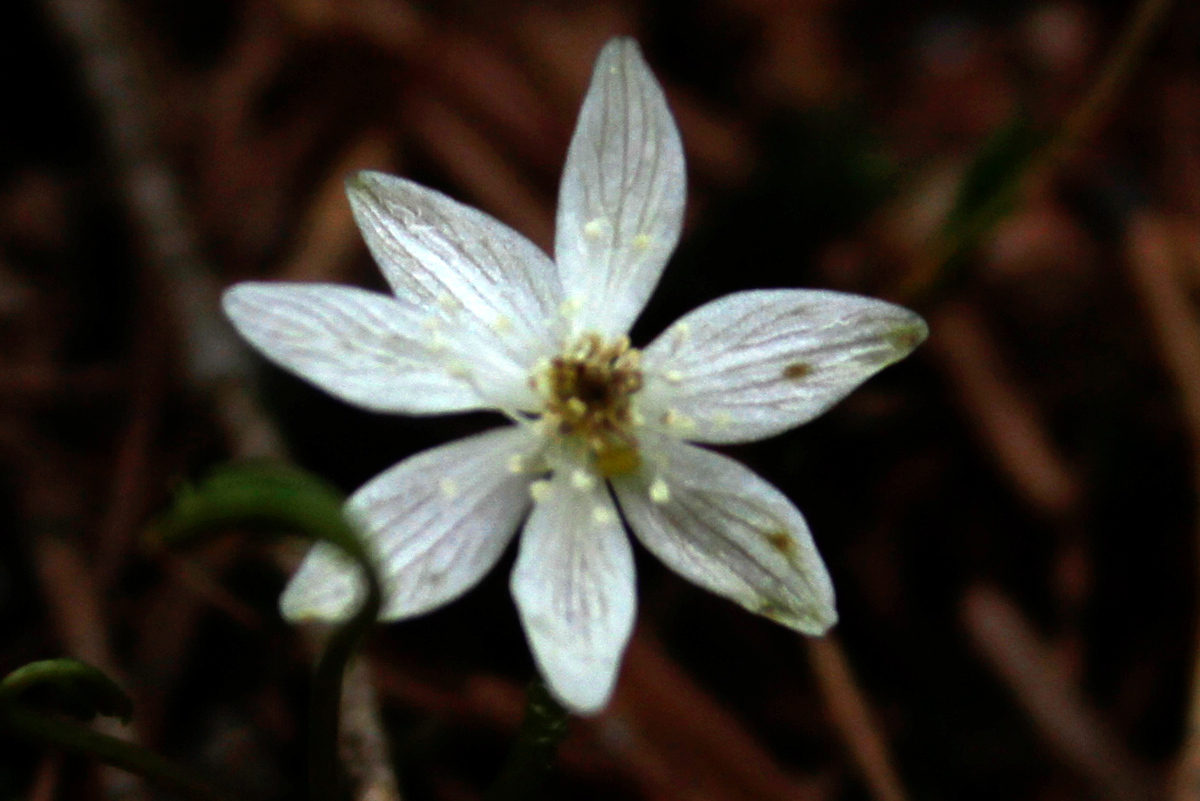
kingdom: Plantae
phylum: Tracheophyta
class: Magnoliopsida
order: Ranunculales
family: Ranunculaceae
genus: Coptis
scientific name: Coptis trifolia
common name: Canker-root
